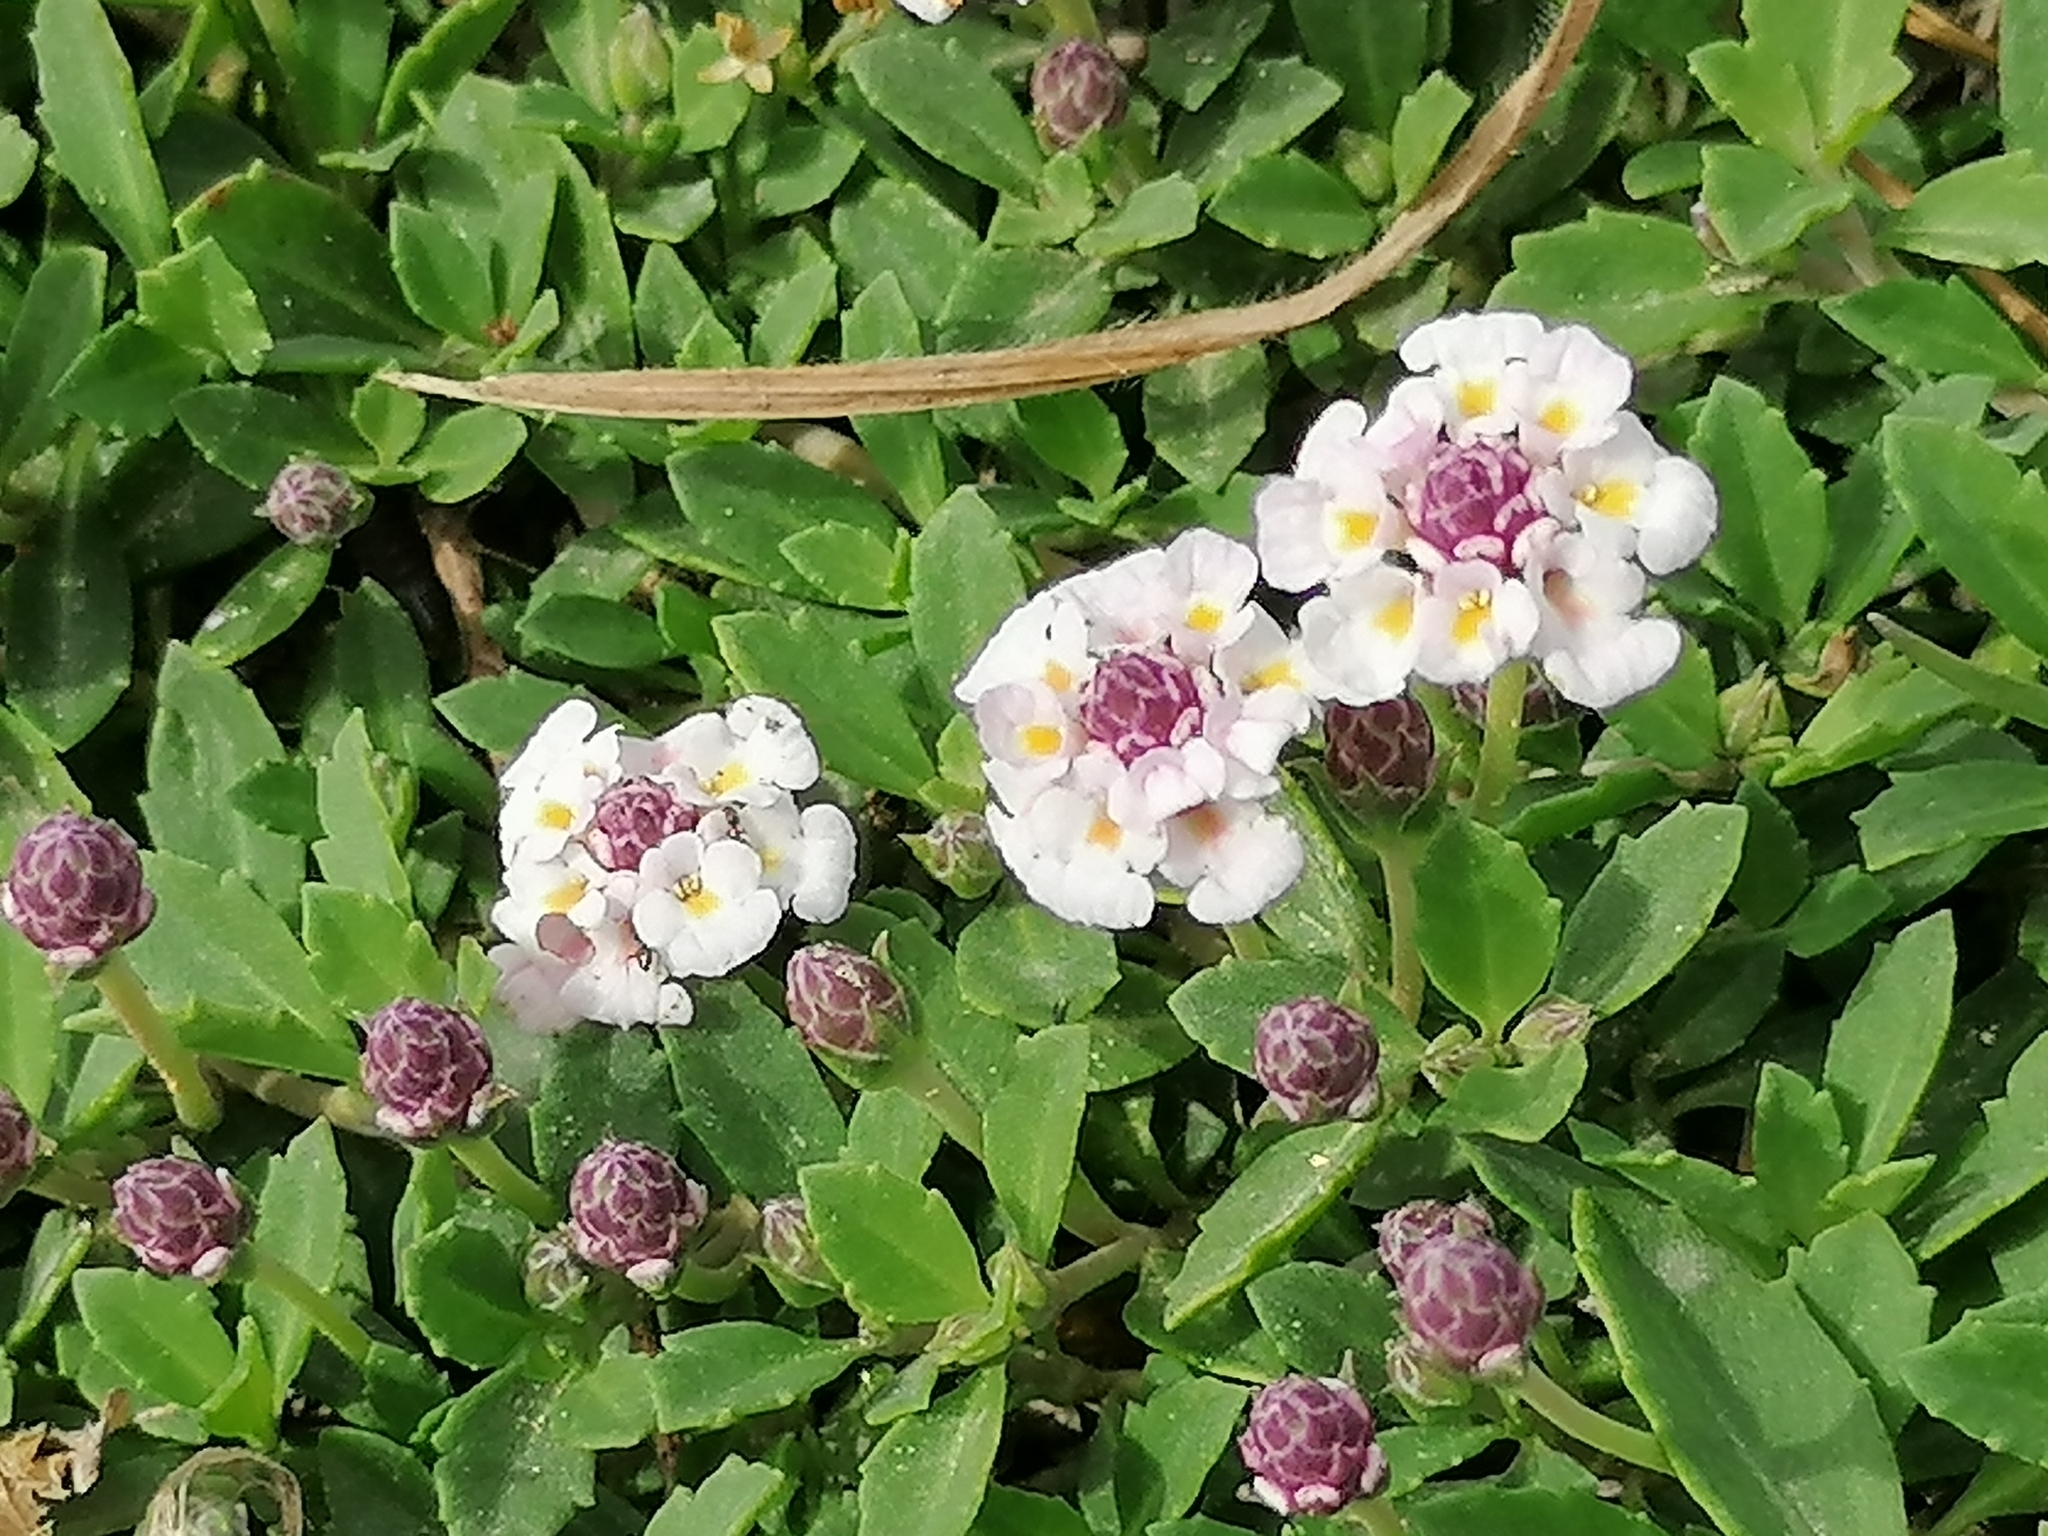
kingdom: Plantae
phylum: Tracheophyta
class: Magnoliopsida
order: Lamiales
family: Verbenaceae
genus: Phyla
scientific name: Phyla nodiflora
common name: Frogfruit
